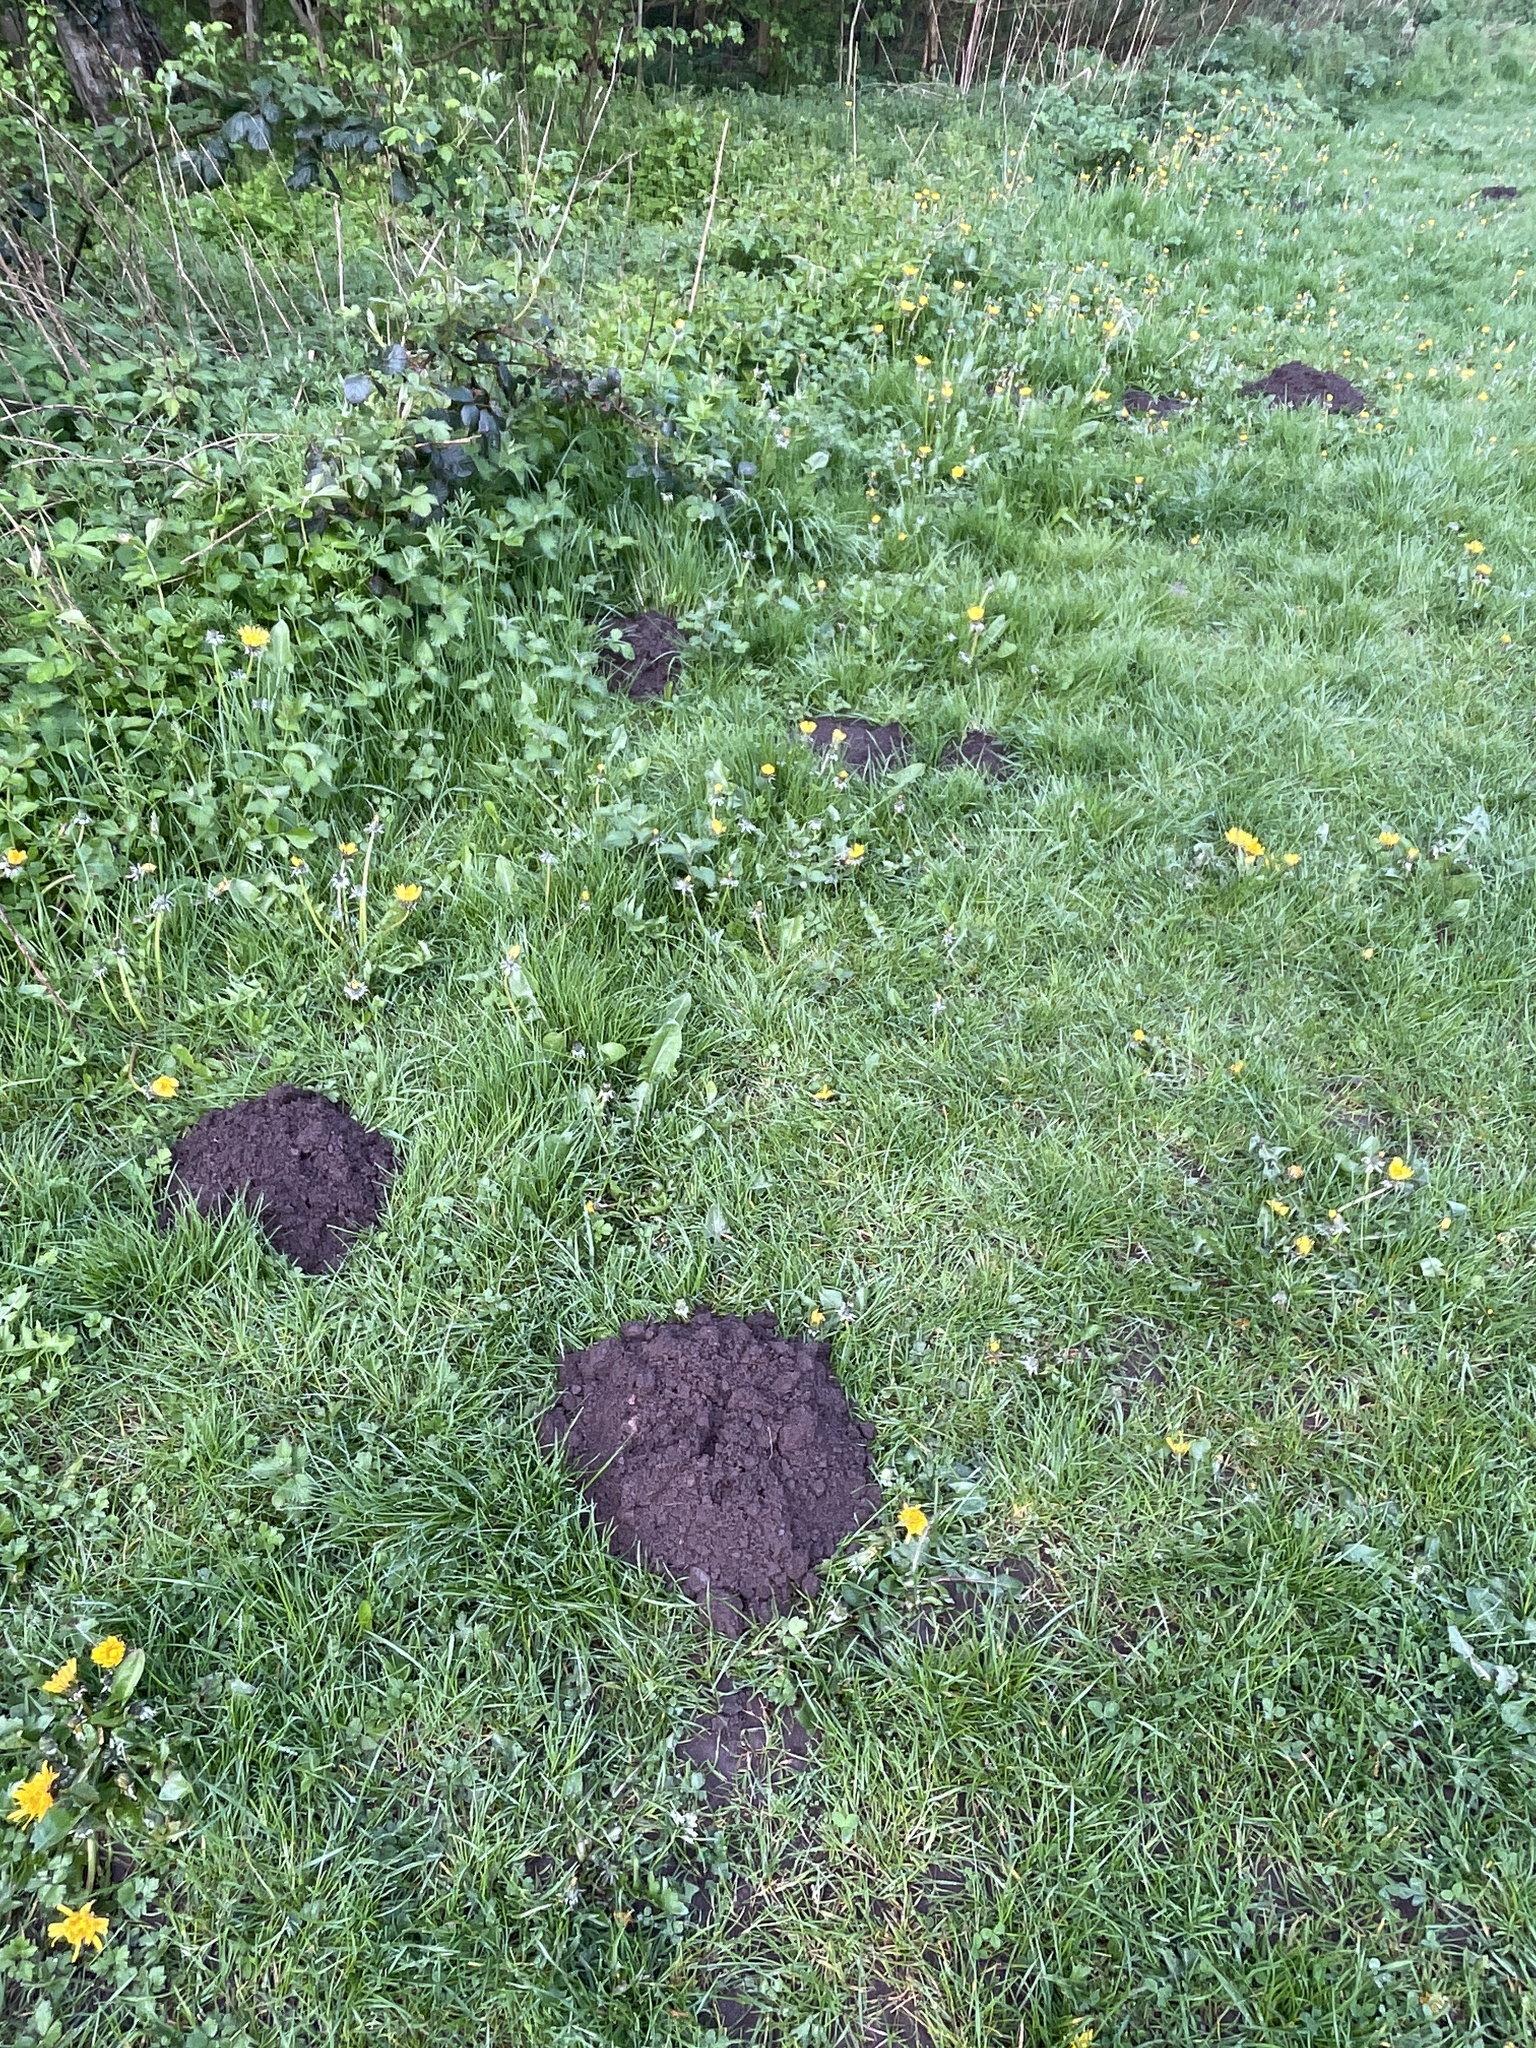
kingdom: Animalia
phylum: Chordata
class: Mammalia
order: Soricomorpha
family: Talpidae
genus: Talpa
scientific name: Talpa europaea
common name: European mole
